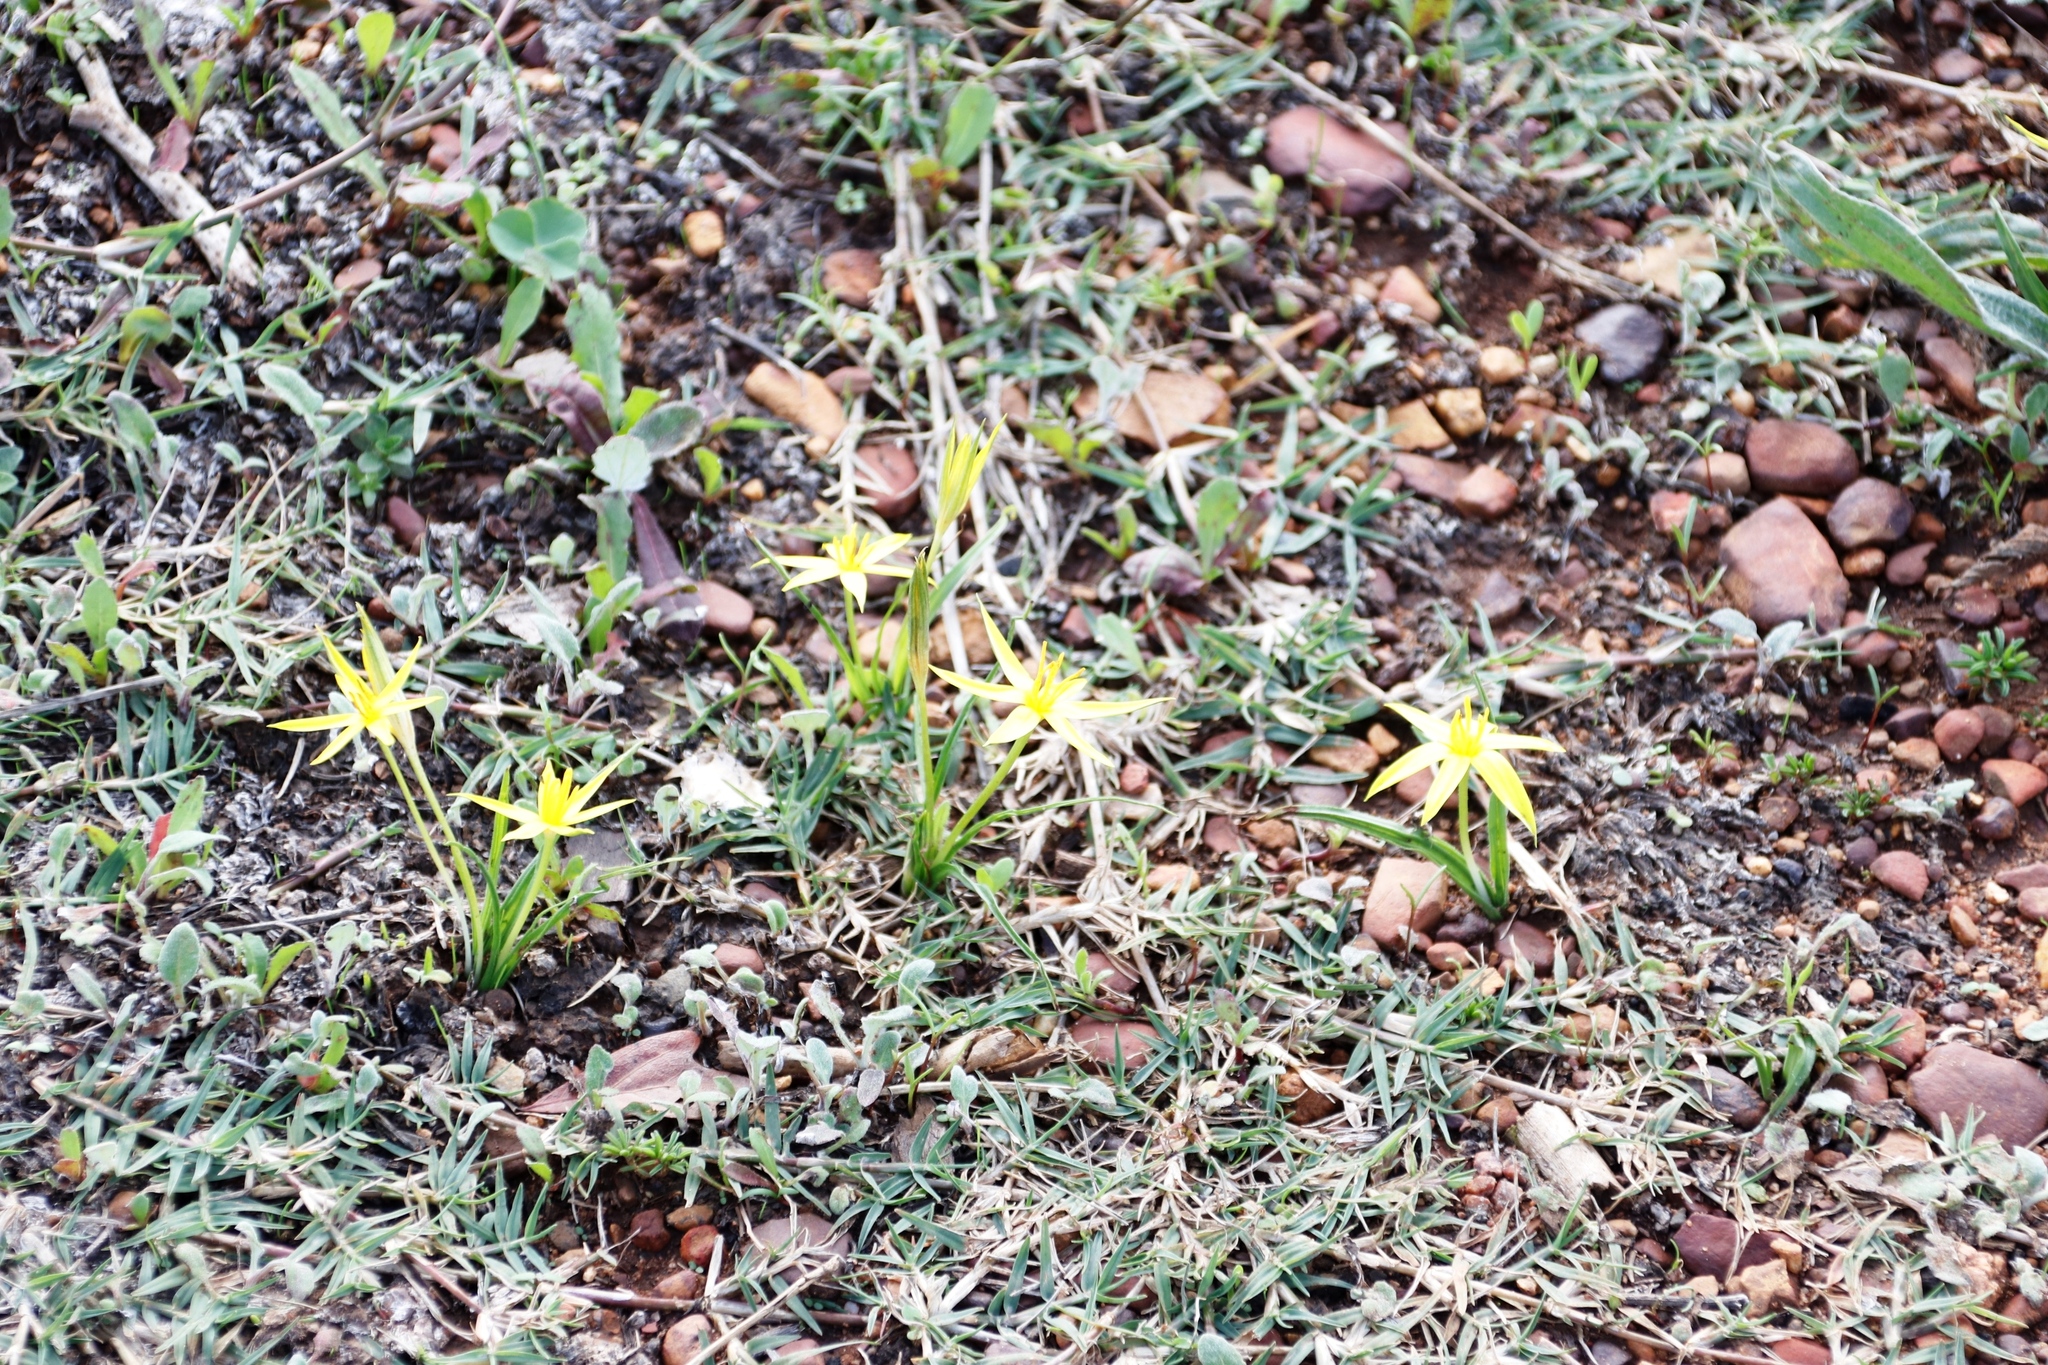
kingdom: Plantae
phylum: Tracheophyta
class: Liliopsida
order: Asparagales
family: Hypoxidaceae
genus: Empodium
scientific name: Empodium plicatum
